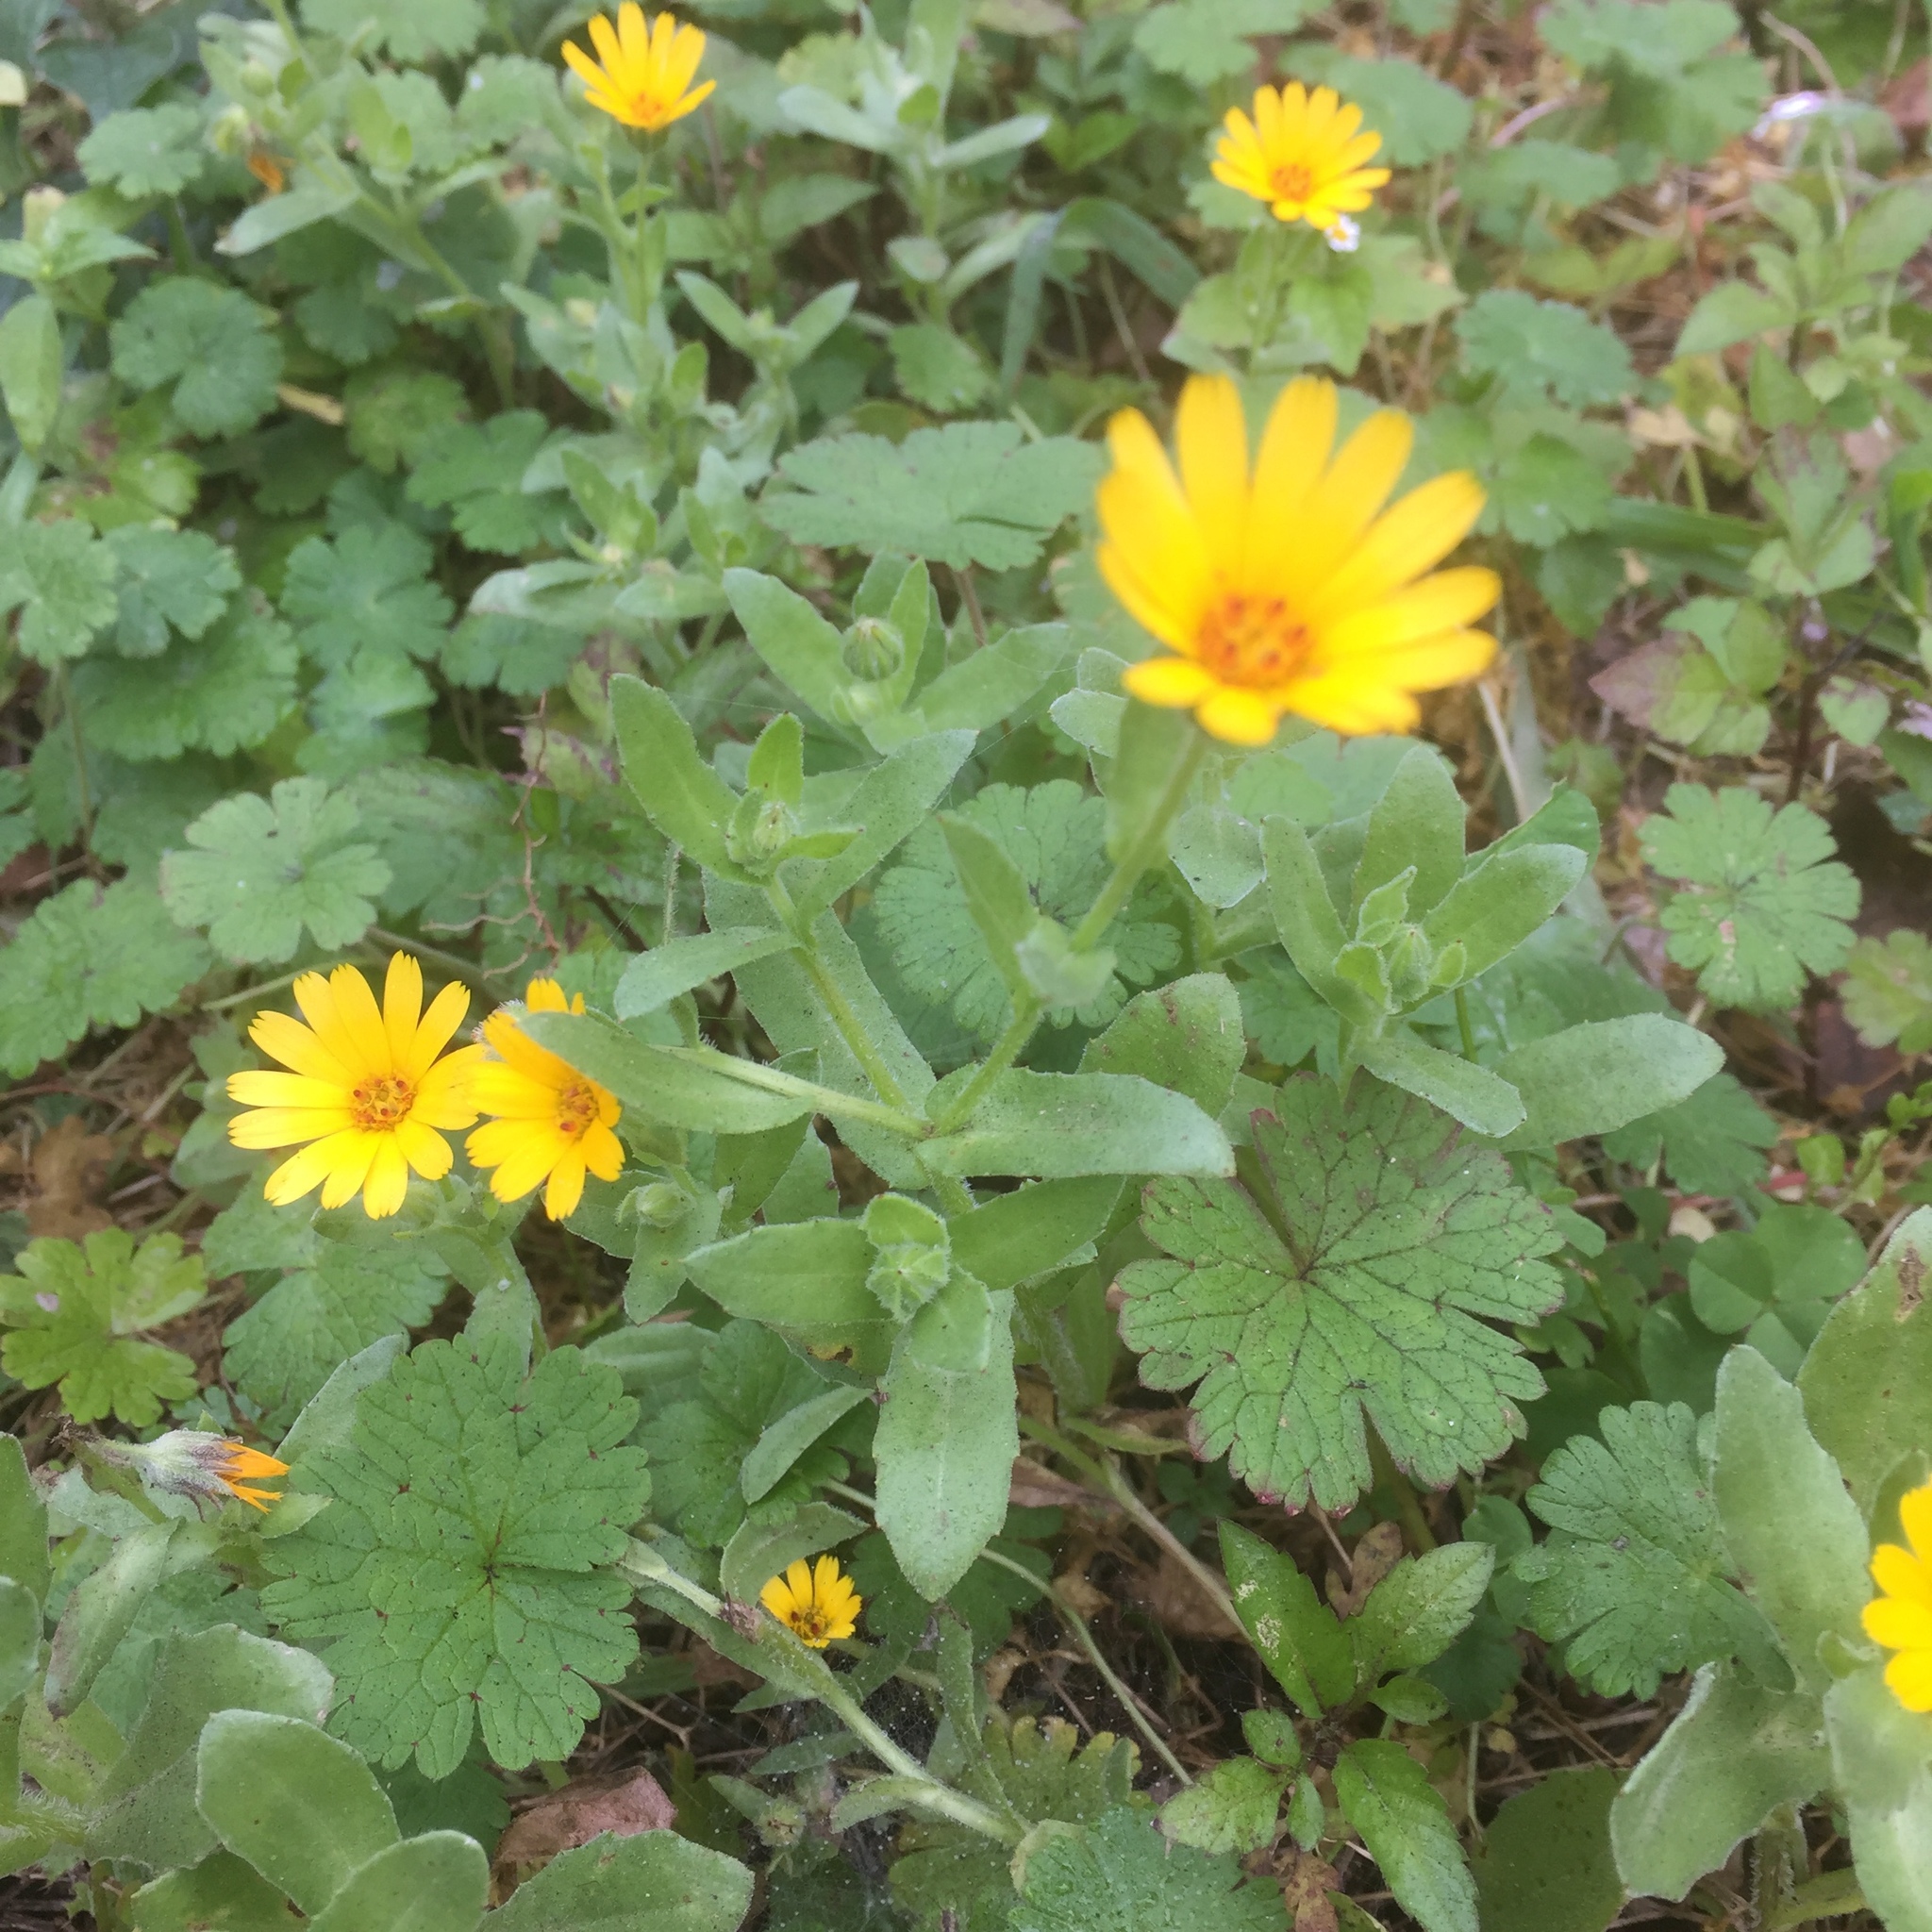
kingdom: Plantae
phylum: Tracheophyta
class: Magnoliopsida
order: Asterales
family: Asteraceae
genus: Calendula
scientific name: Calendula arvensis
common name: Field marigold
